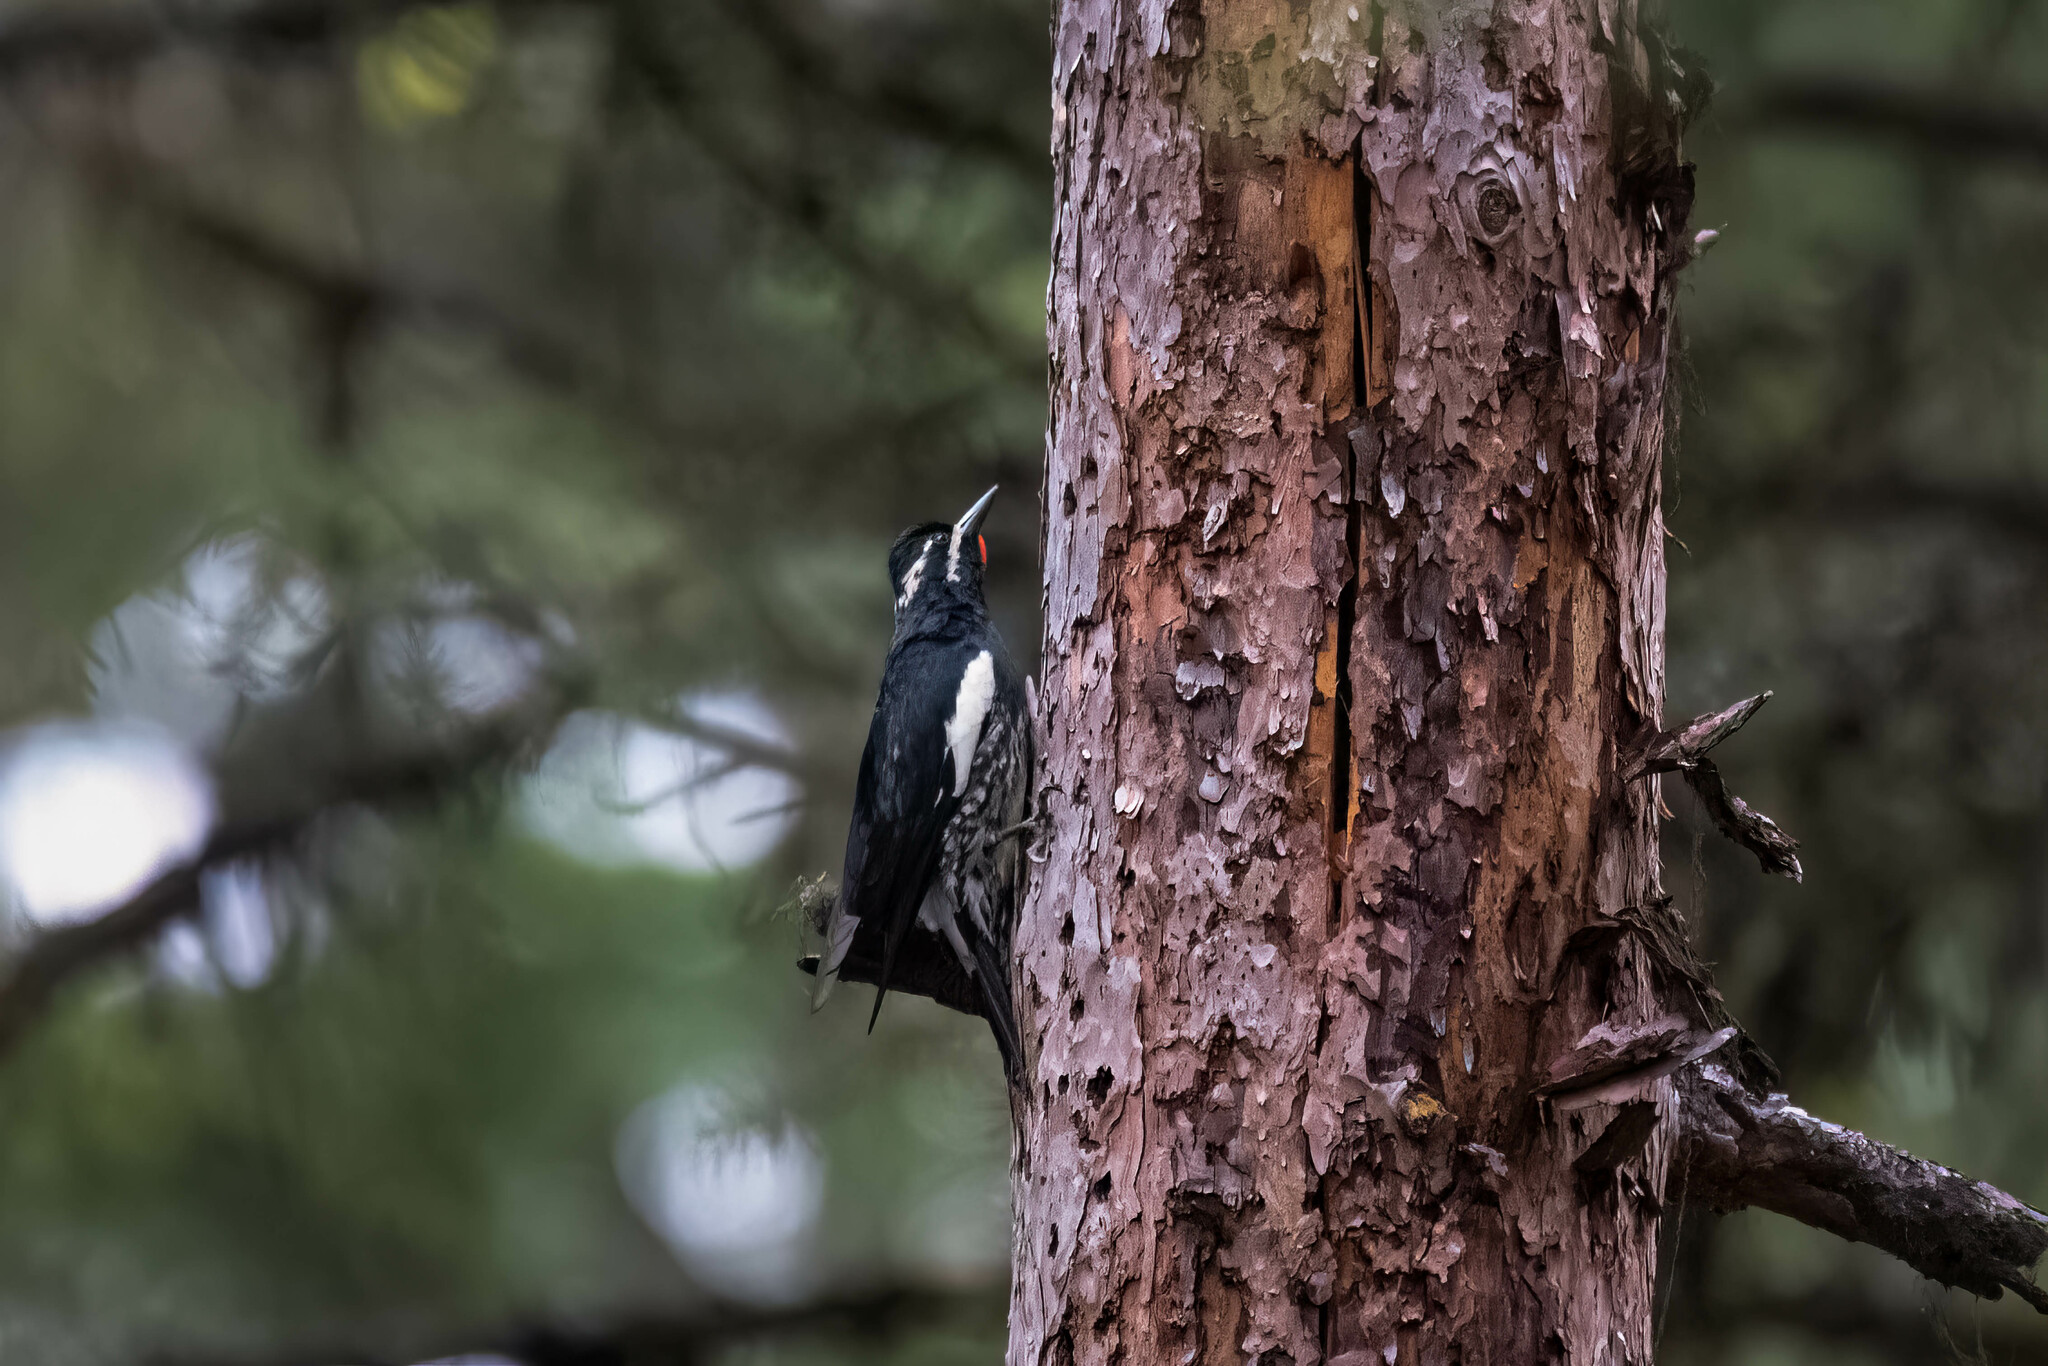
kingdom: Animalia
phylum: Chordata
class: Aves
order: Piciformes
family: Picidae
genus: Sphyrapicus
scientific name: Sphyrapicus thyroideus
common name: Williamson's sapsucker
